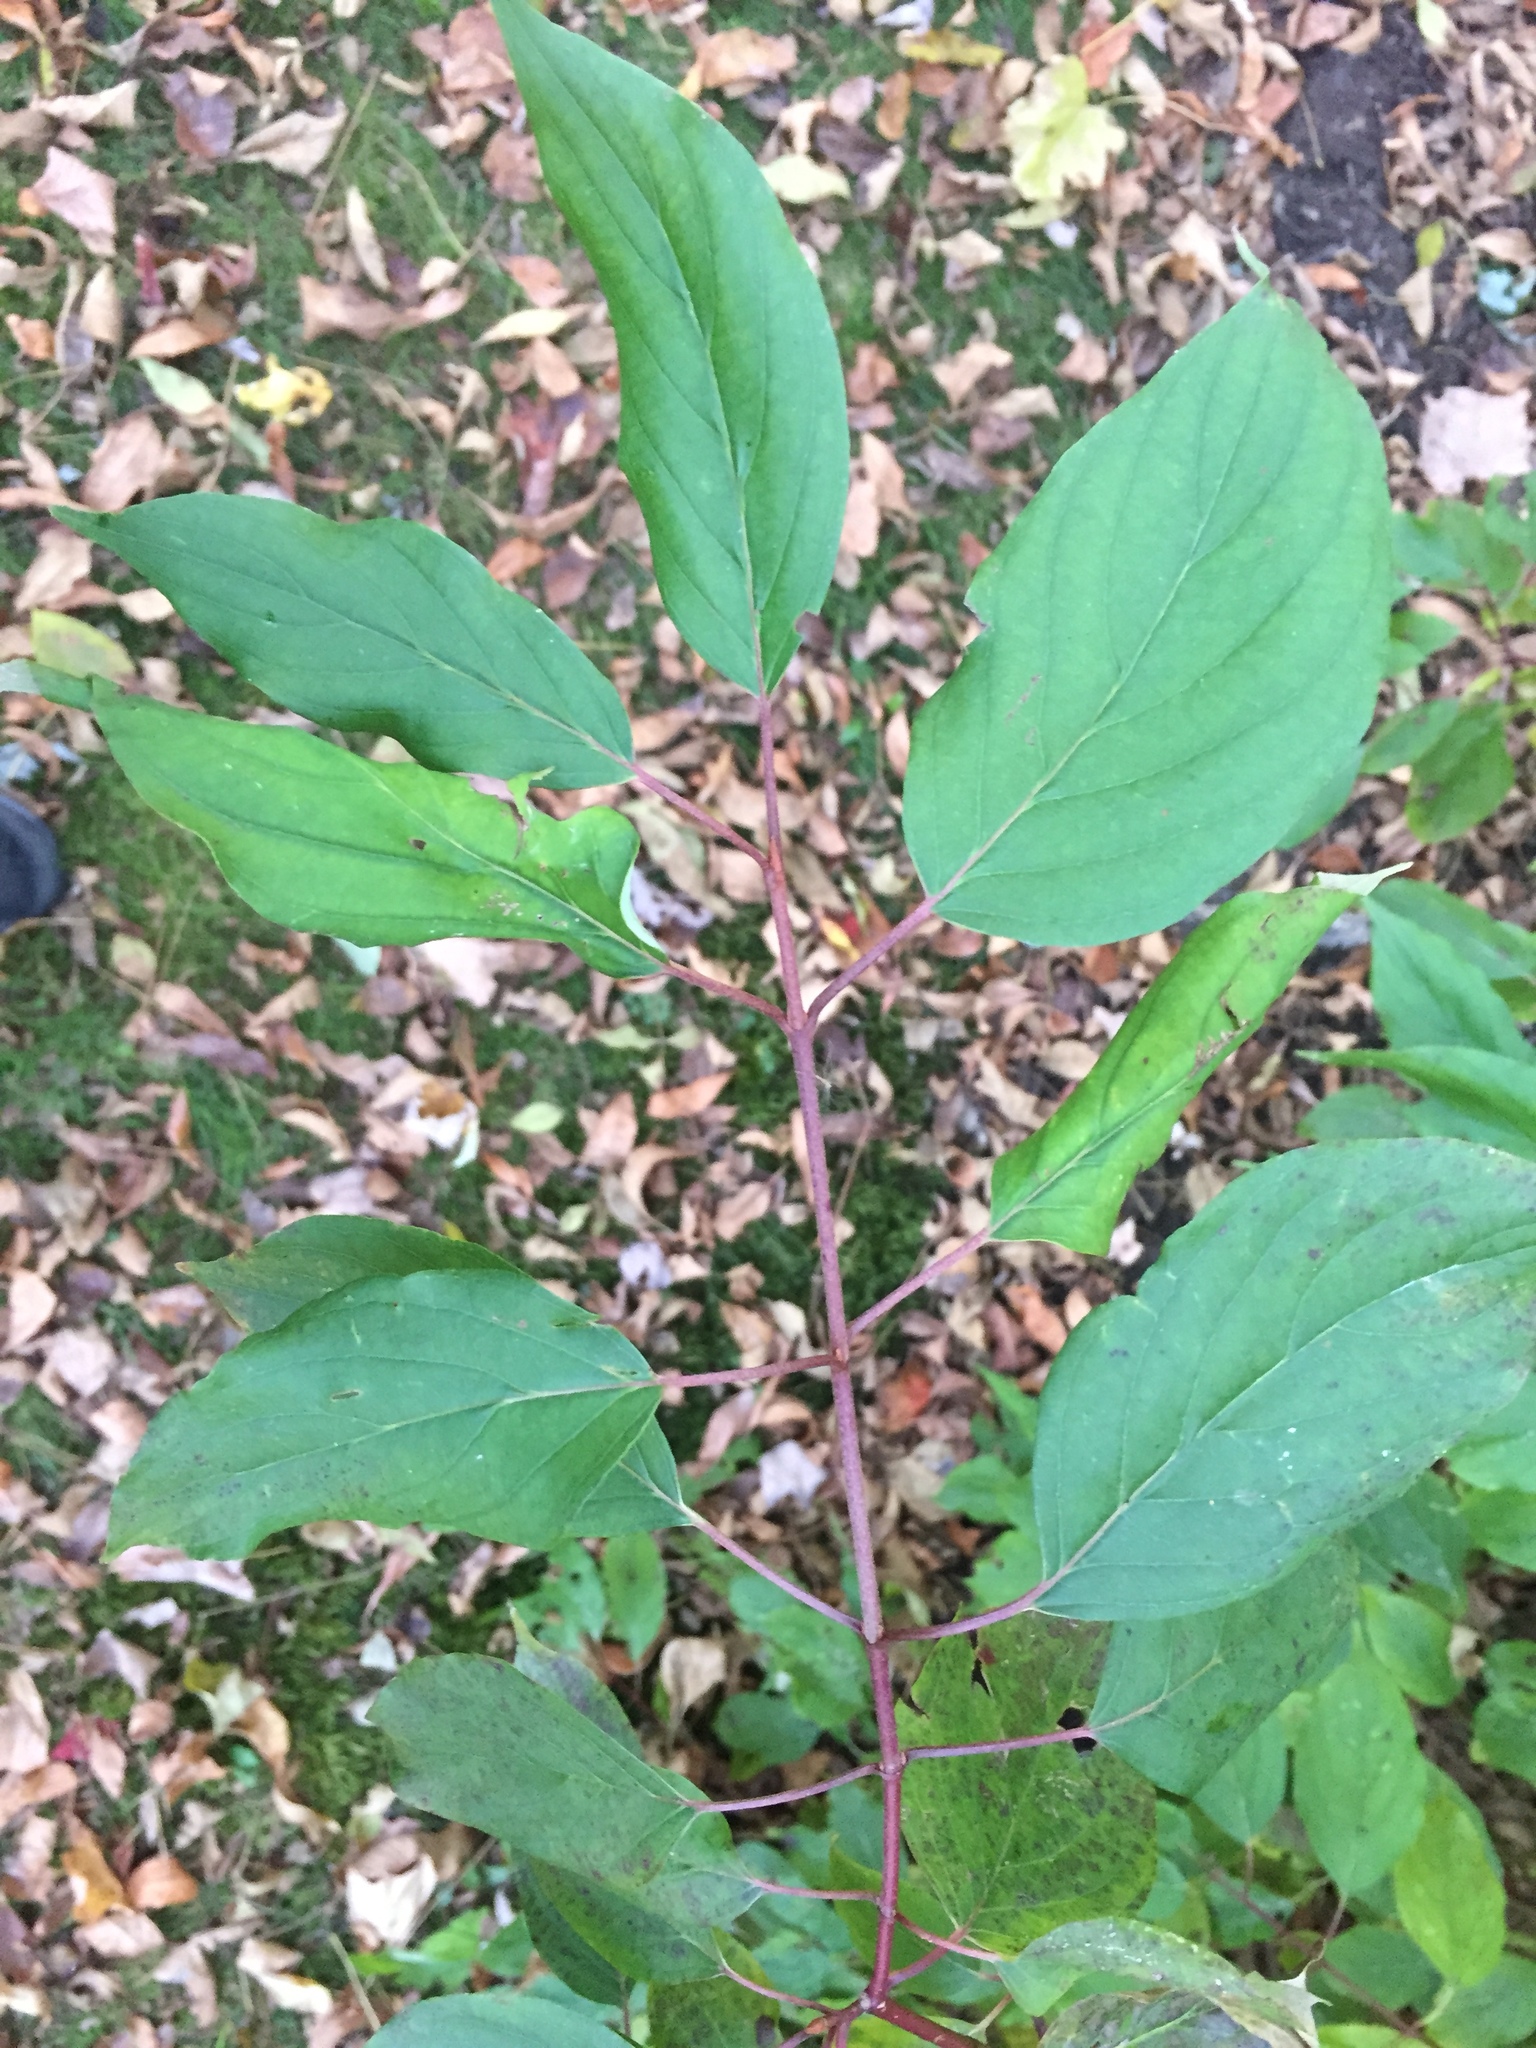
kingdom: Plantae
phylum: Tracheophyta
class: Magnoliopsida
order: Cornales
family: Cornaceae
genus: Cornus
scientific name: Cornus sericea
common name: Red-osier dogwood
